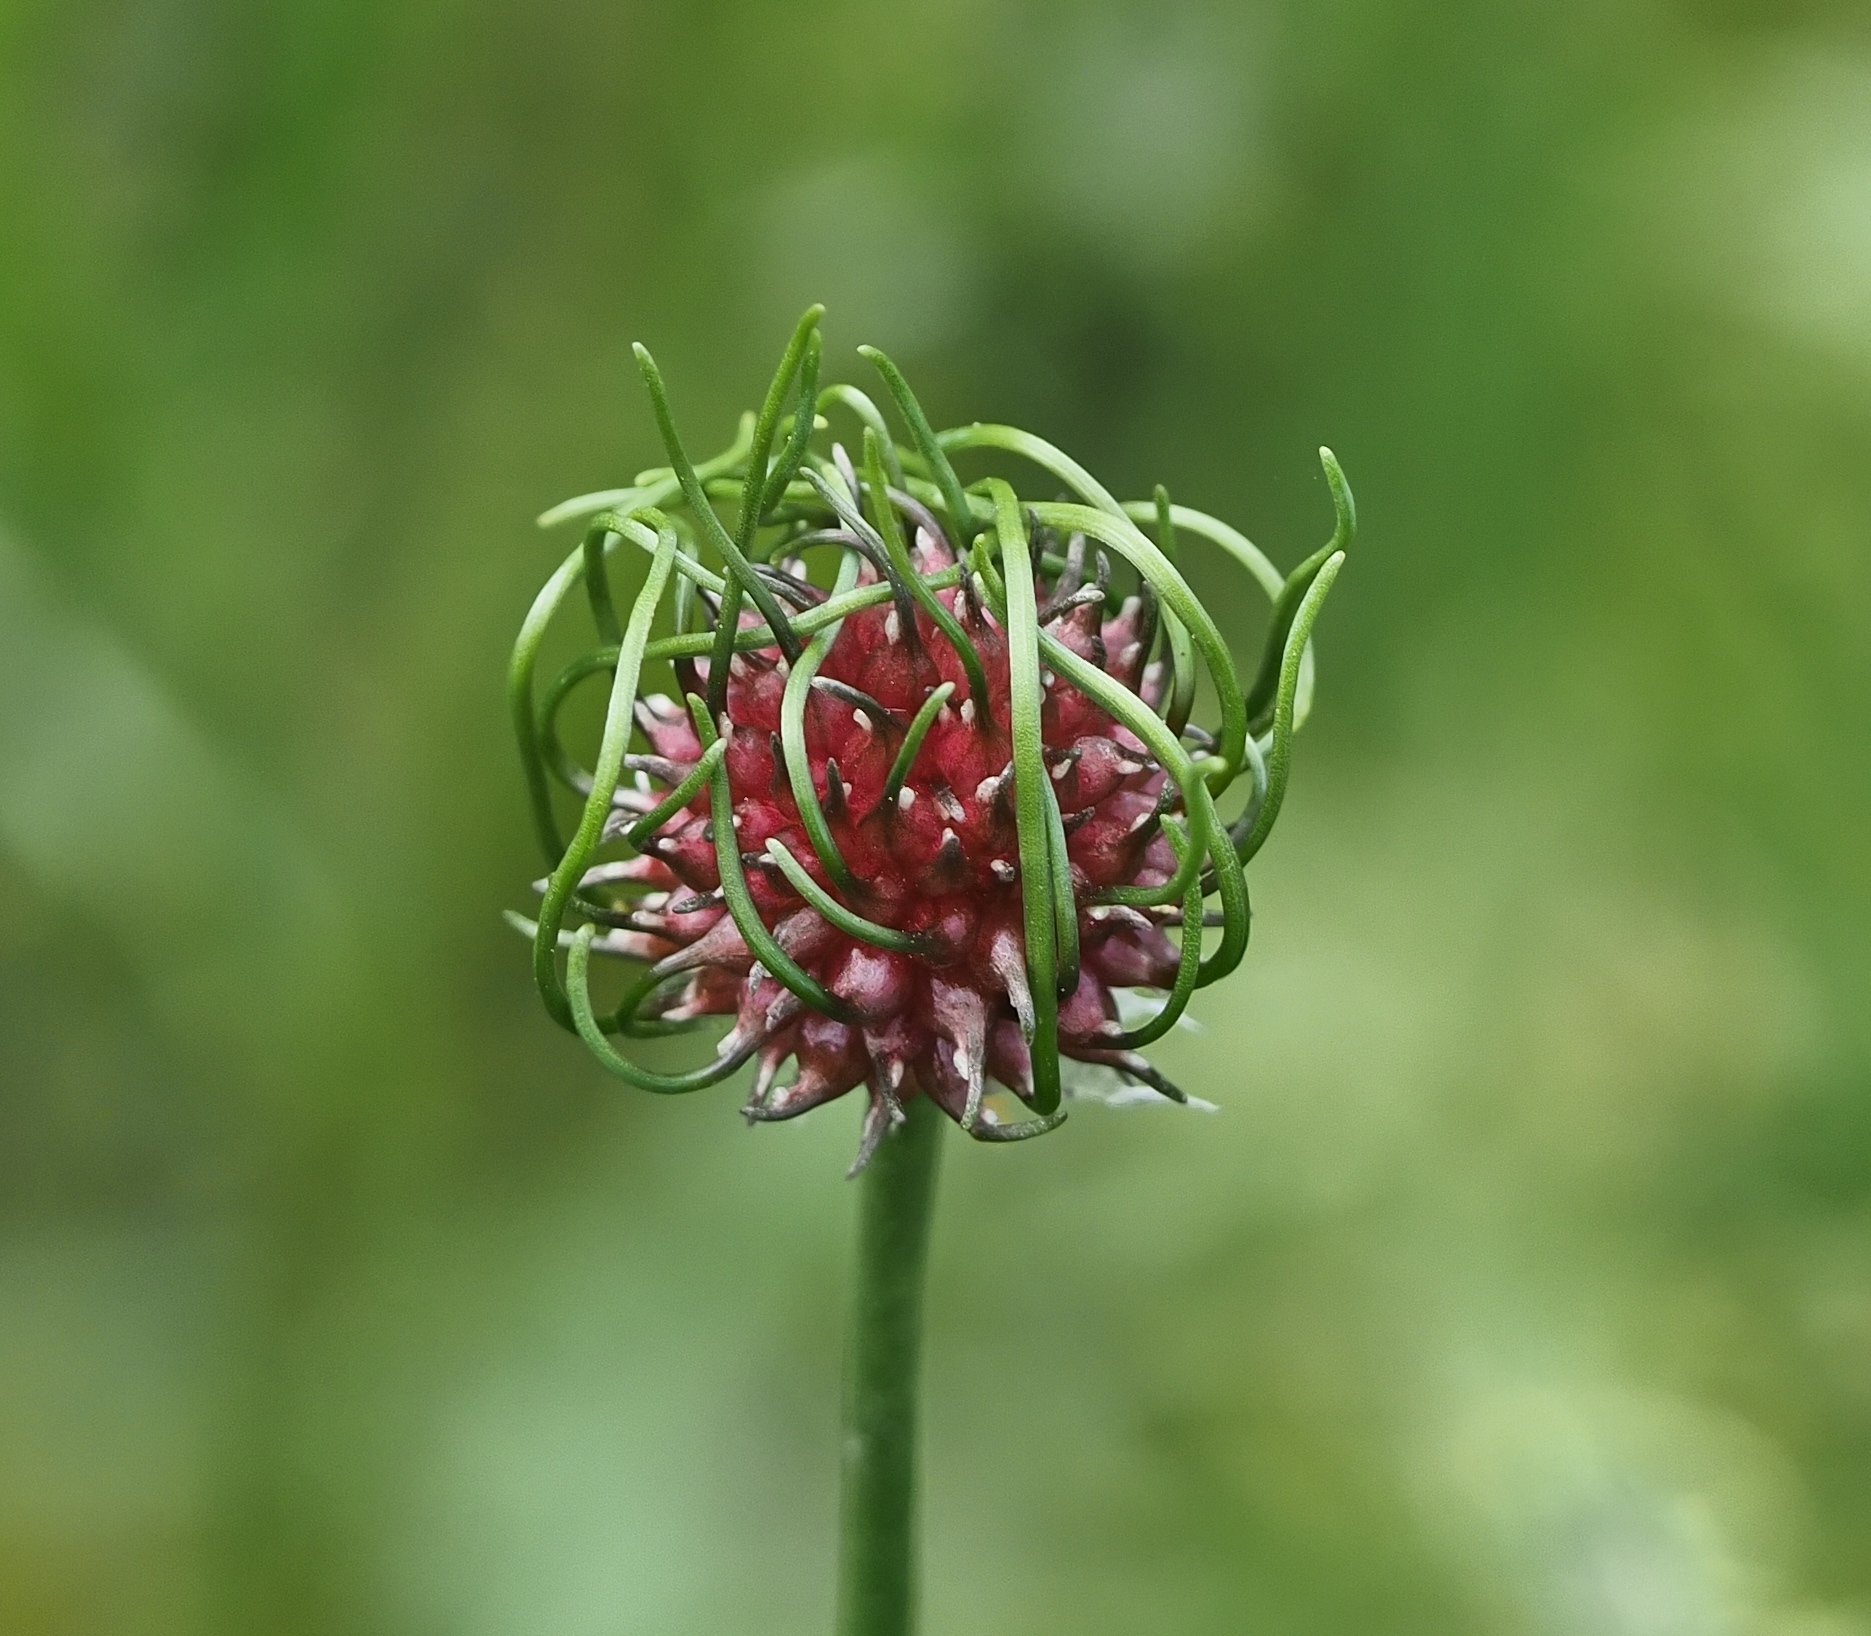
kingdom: Plantae
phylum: Tracheophyta
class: Liliopsida
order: Asparagales
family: Amaryllidaceae
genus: Allium
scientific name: Allium vineale
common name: Crow garlic
